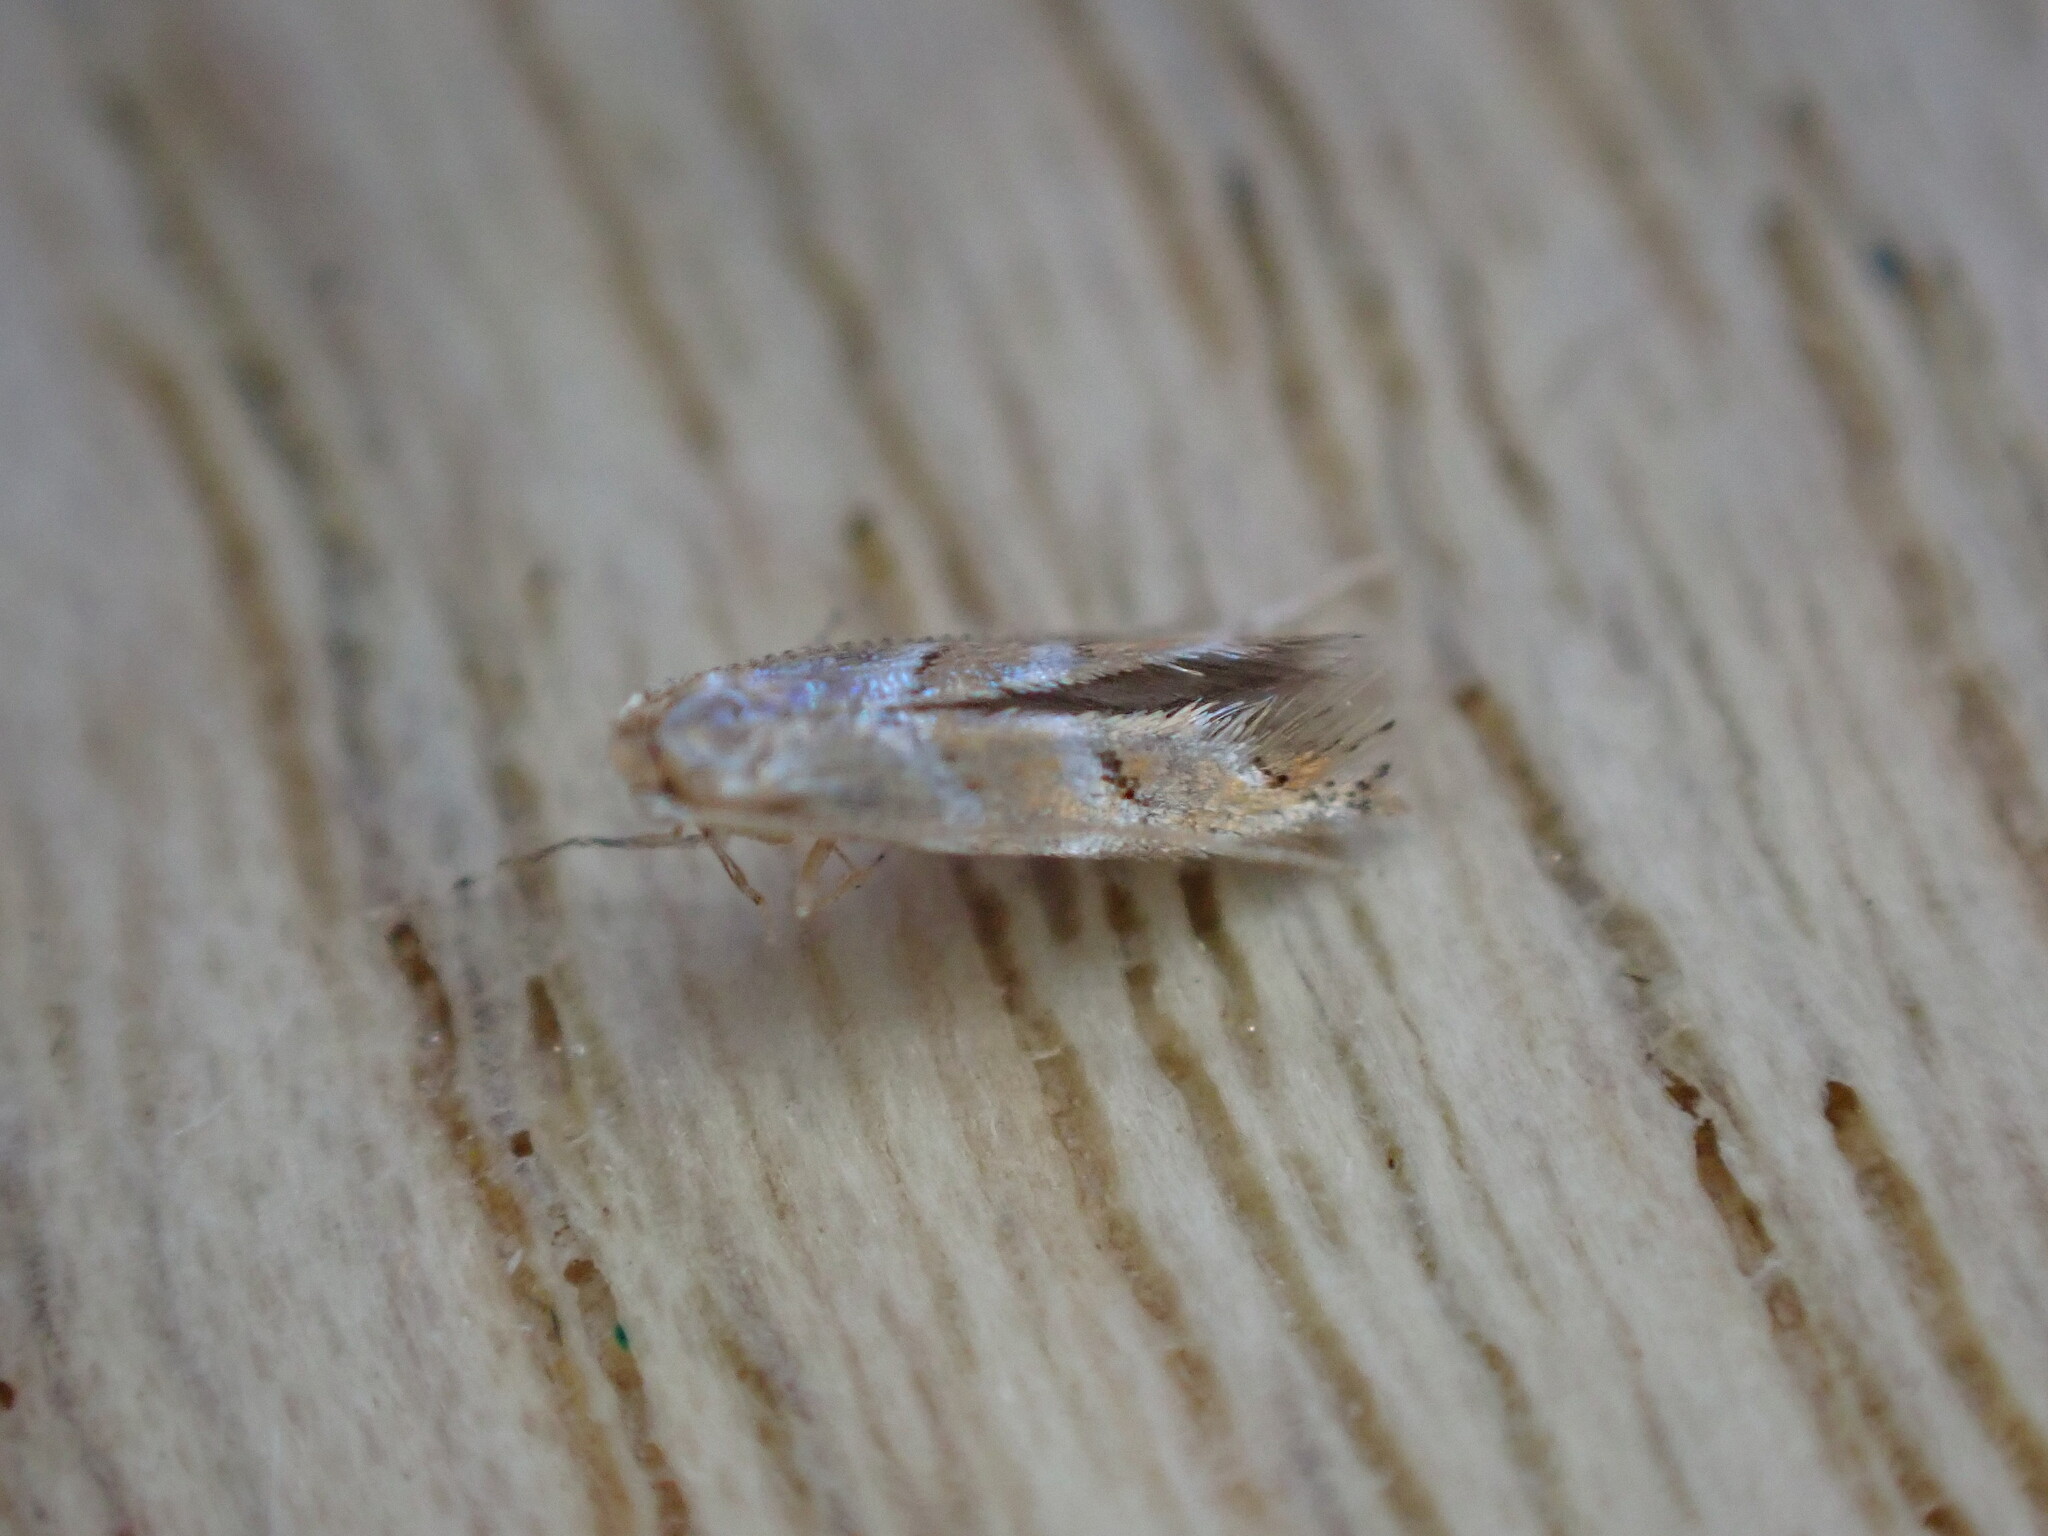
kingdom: Animalia
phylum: Arthropoda
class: Insecta
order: Lepidoptera
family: Gracillariidae
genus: Cameraria
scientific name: Cameraria ohridella
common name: Horse-chestnut leaf-miner
